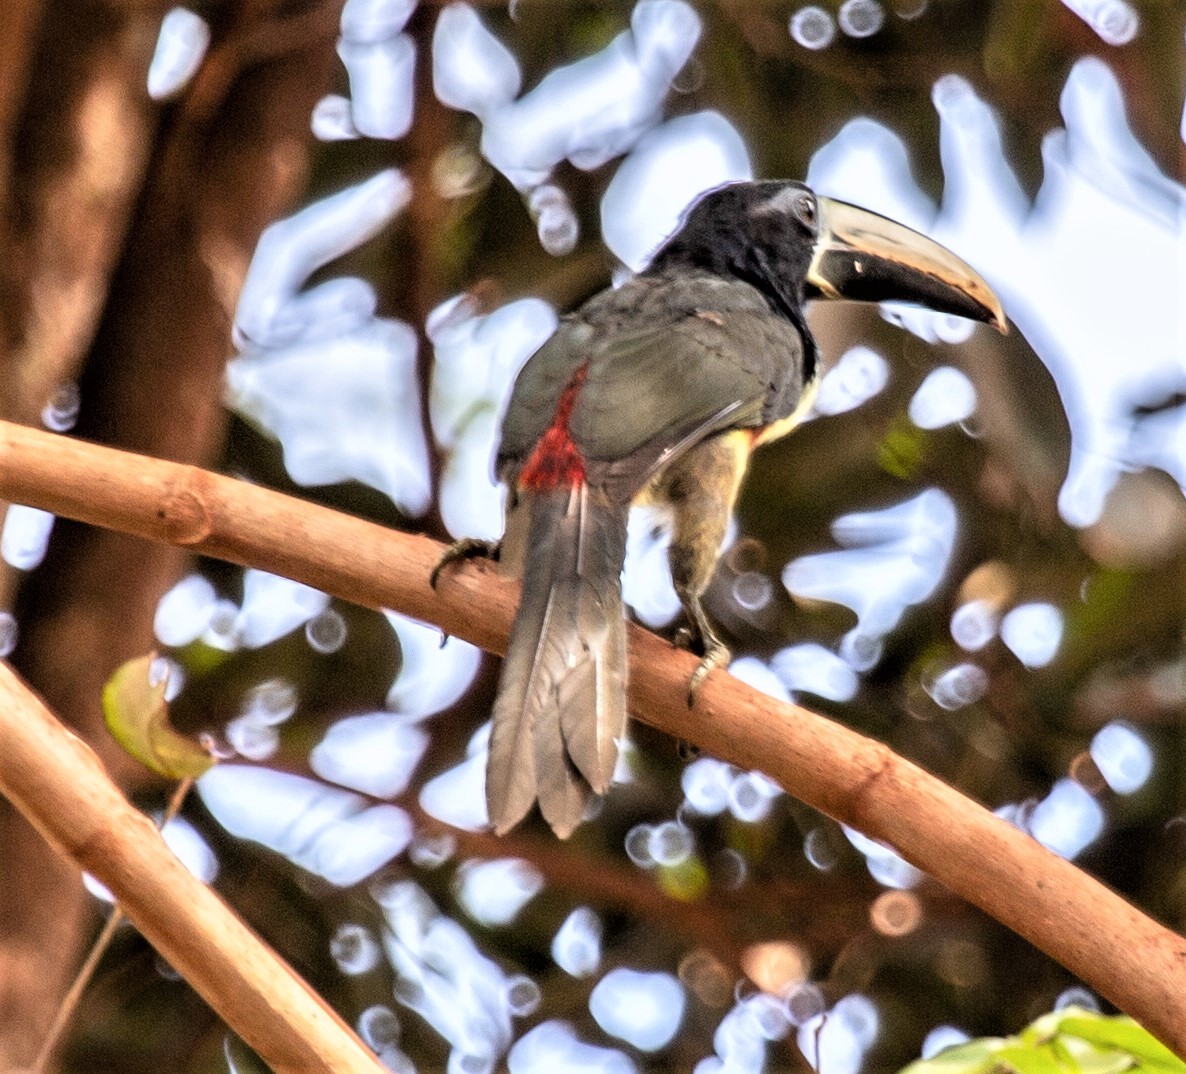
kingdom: Animalia
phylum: Chordata
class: Aves
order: Piciformes
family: Ramphastidae
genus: Pteroglossus
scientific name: Pteroglossus aracari
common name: Black-necked aracari
